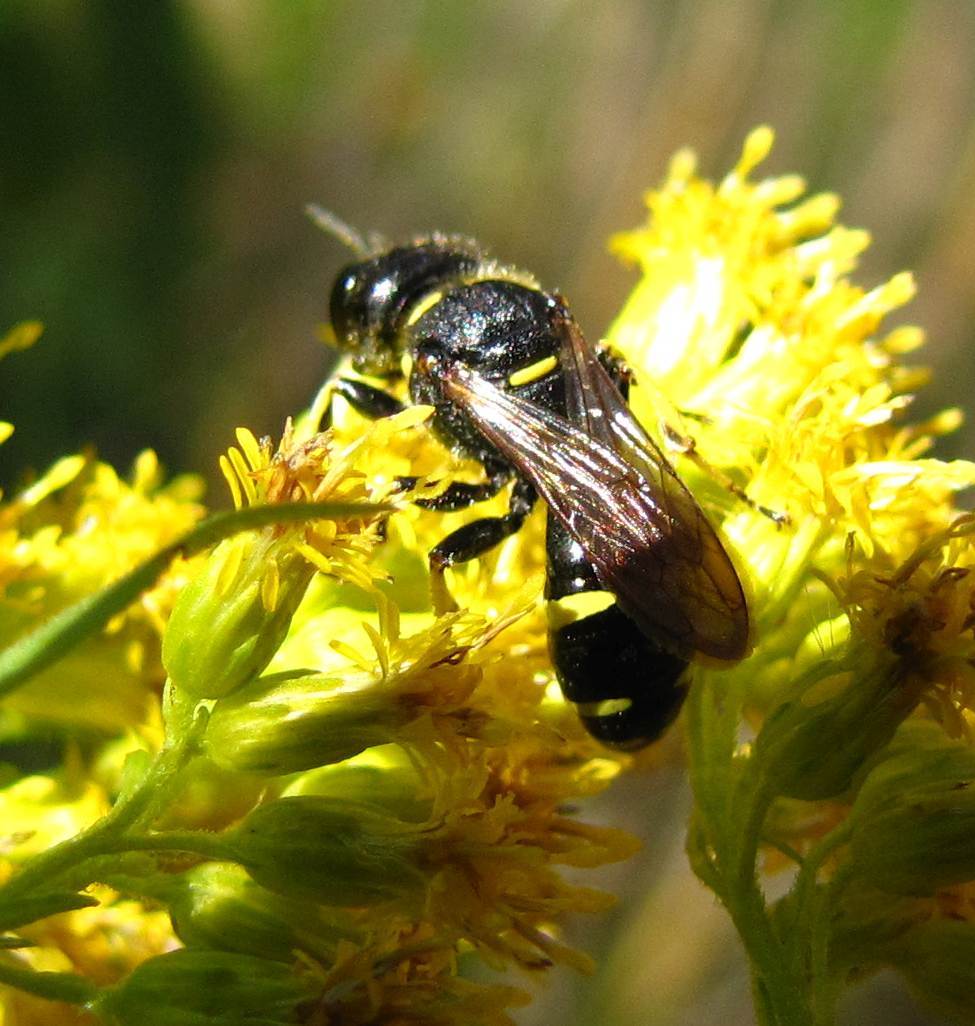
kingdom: Animalia
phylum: Arthropoda
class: Insecta
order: Hymenoptera
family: Crabronidae
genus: Ectemnius
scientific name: Ectemnius continuus
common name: Common ectemnius
